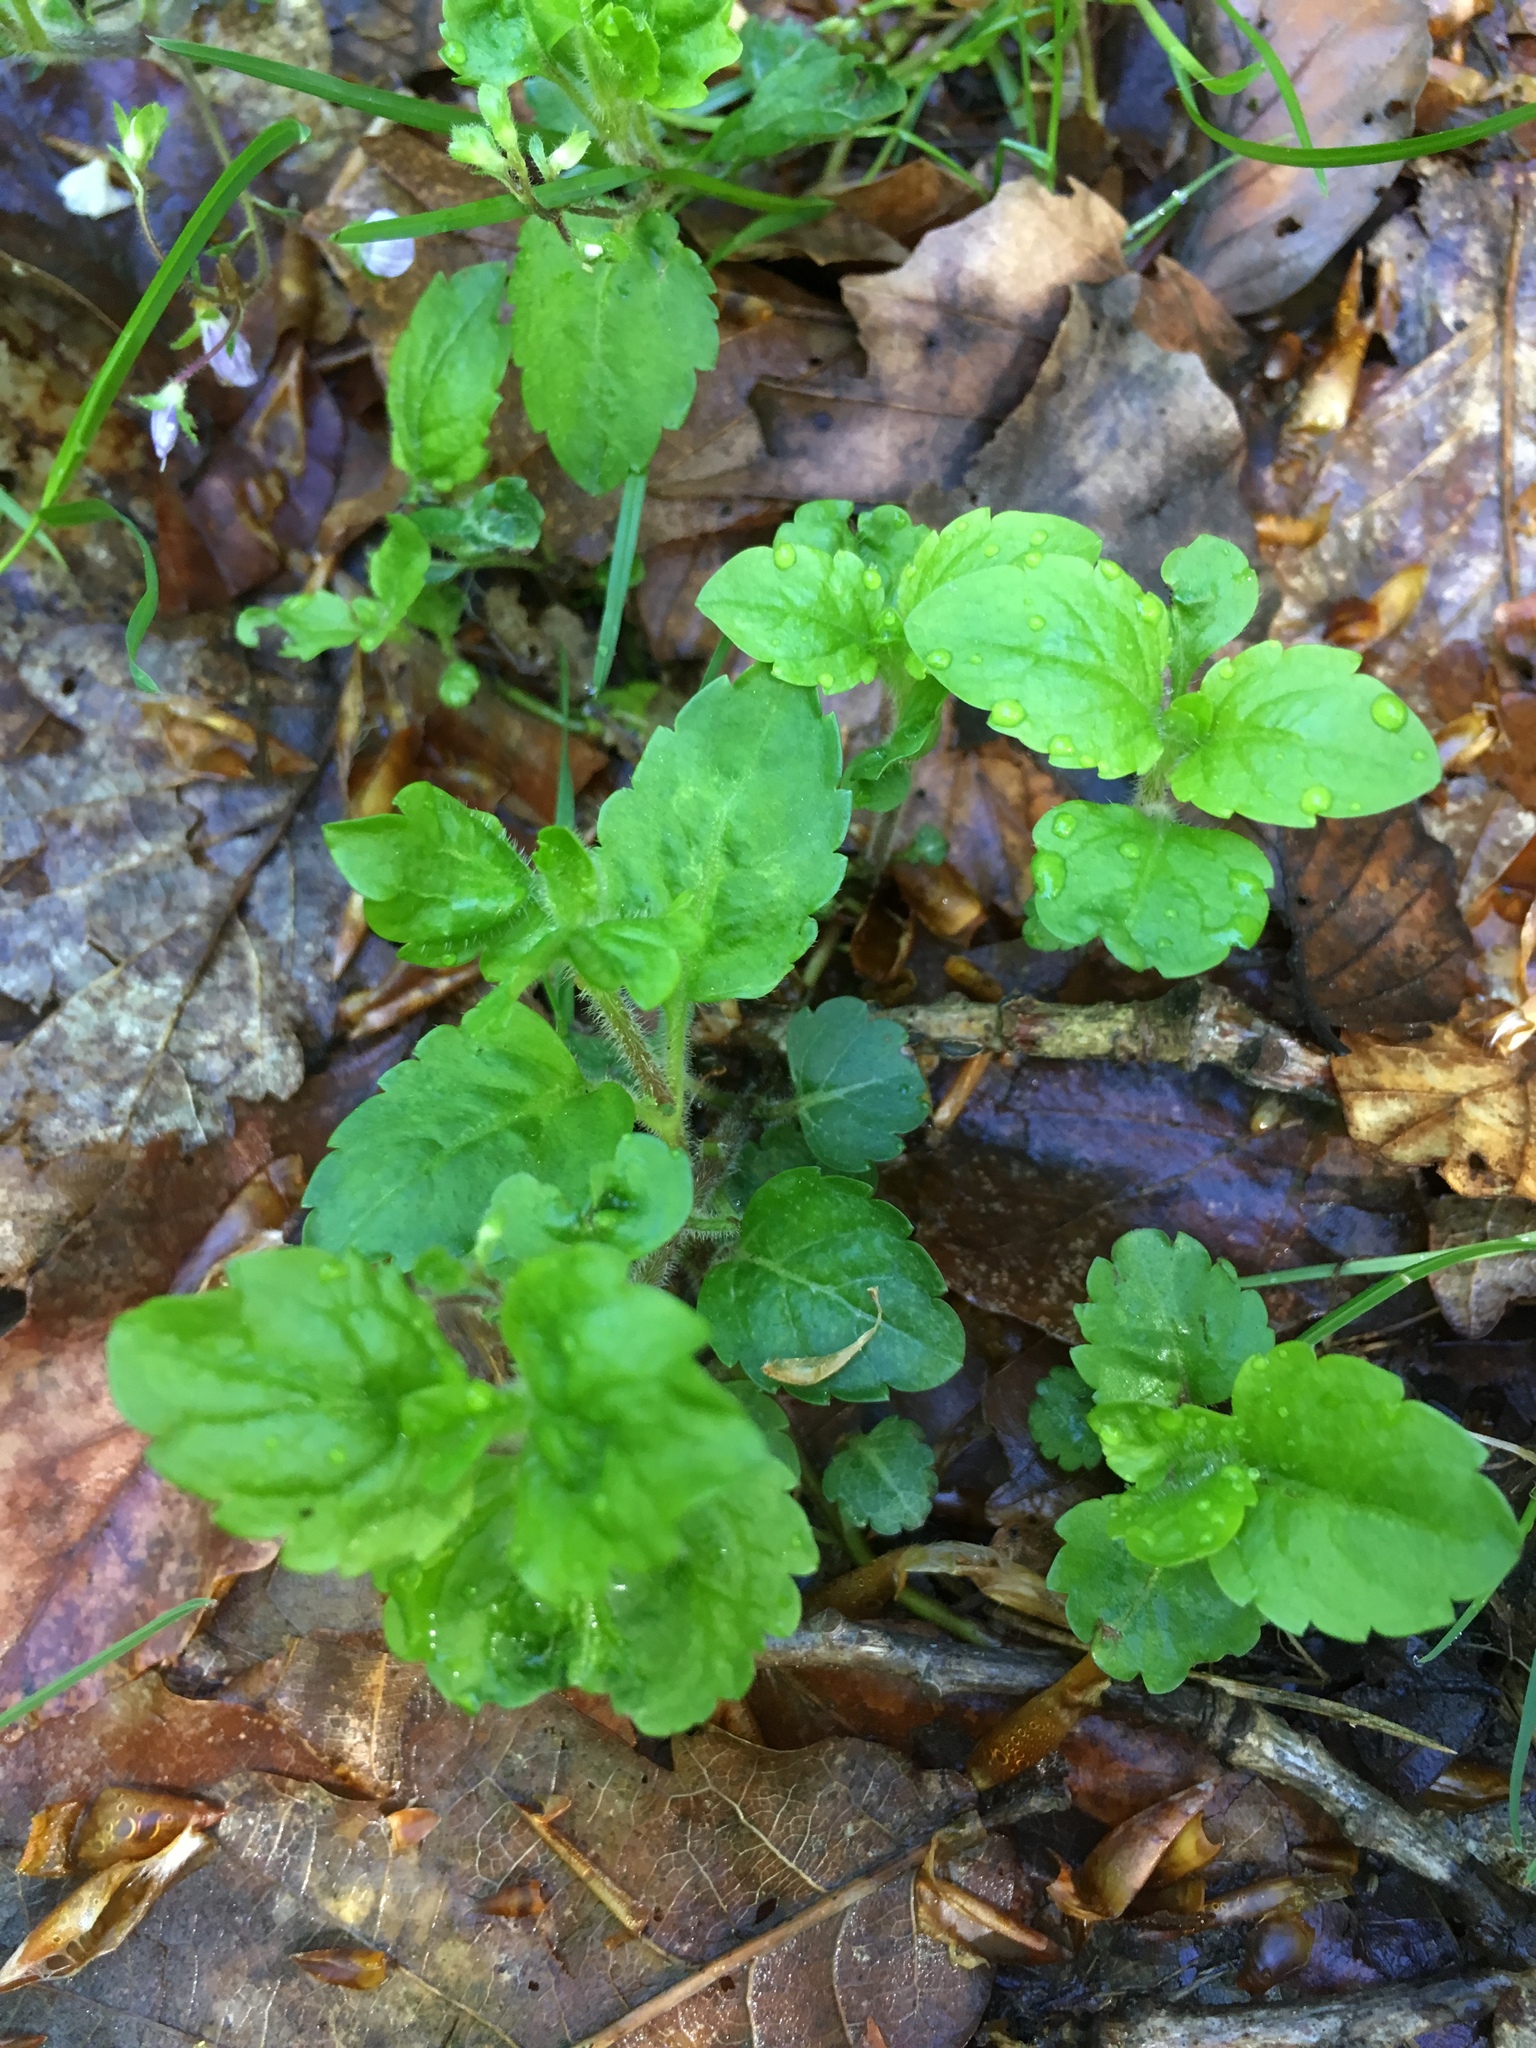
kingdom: Plantae
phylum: Tracheophyta
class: Magnoliopsida
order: Lamiales
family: Plantaginaceae
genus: Veronica
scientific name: Veronica montana
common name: Wood speedwell
